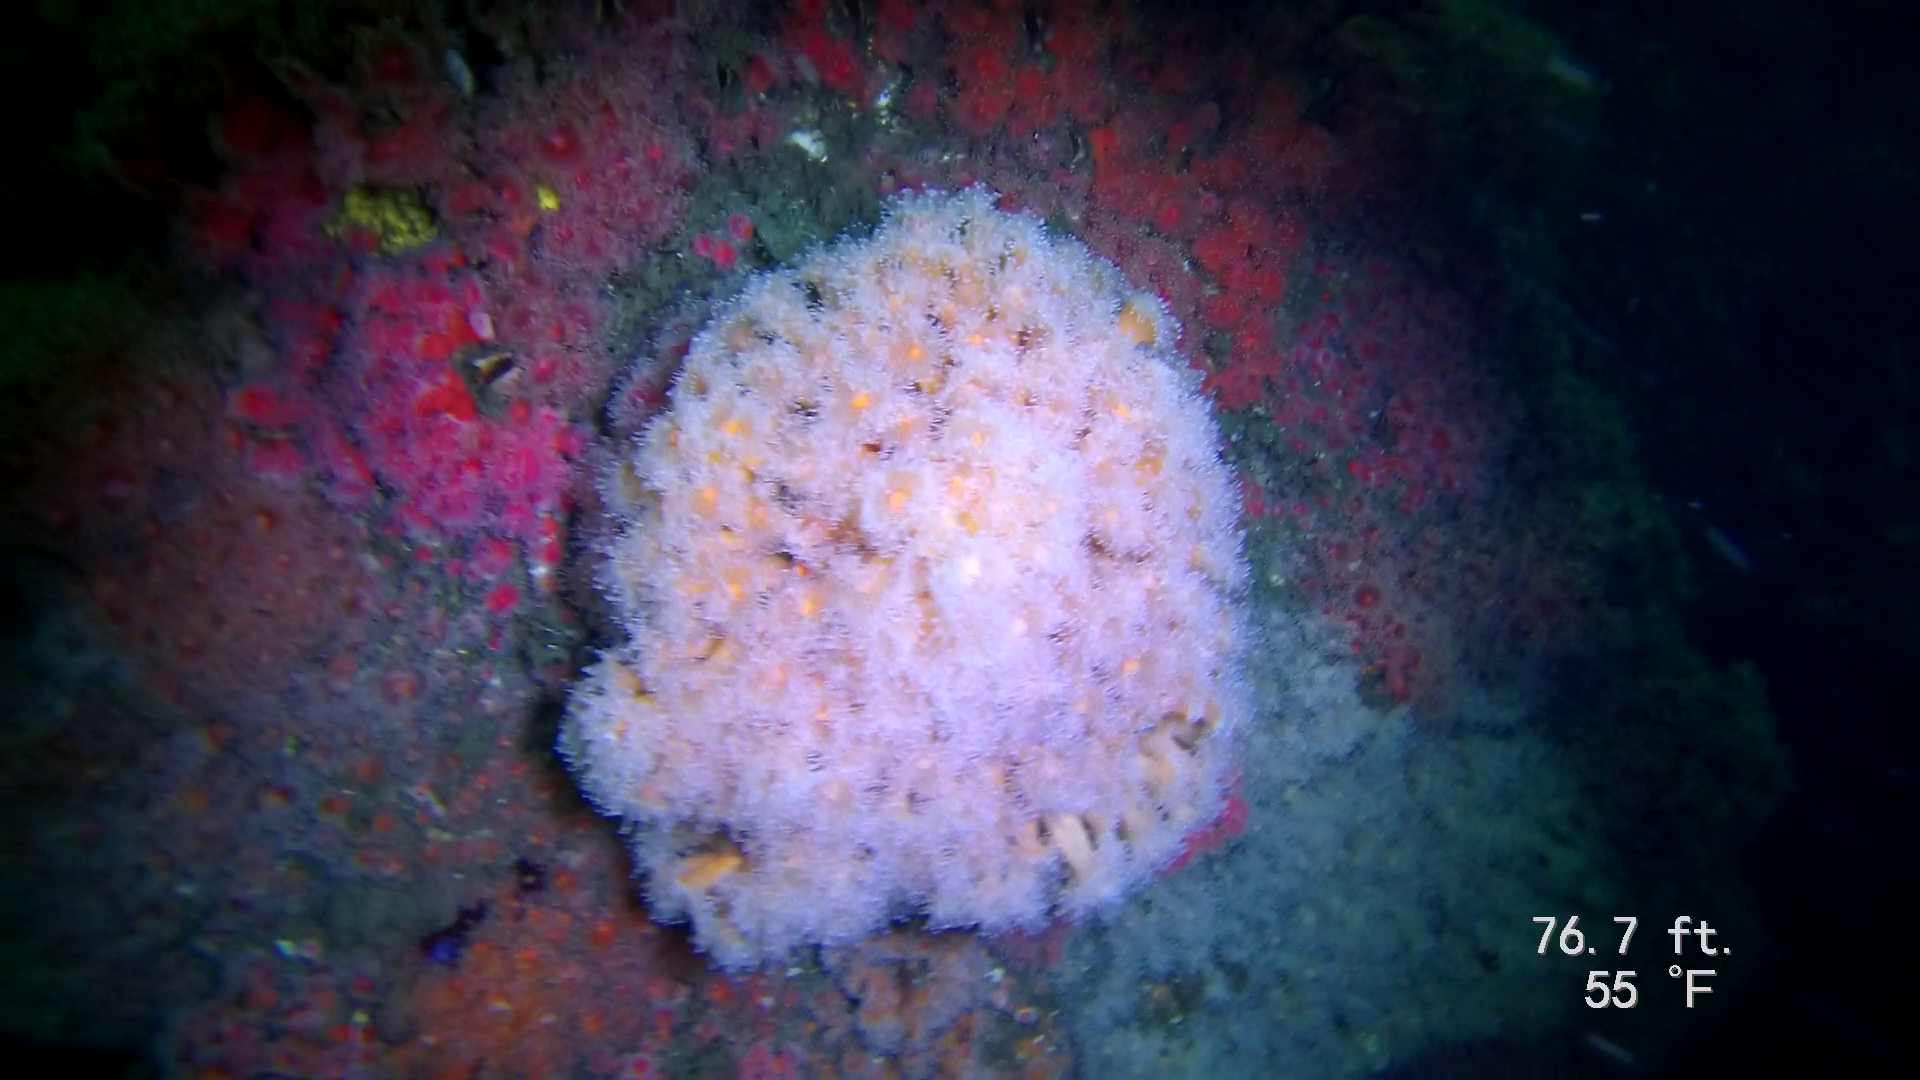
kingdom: Animalia
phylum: Cnidaria
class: Anthozoa
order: Corallimorpharia
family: Corallimorphidae
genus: Corynactis
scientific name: Corynactis californica
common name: Strawberry corallimorpharian
